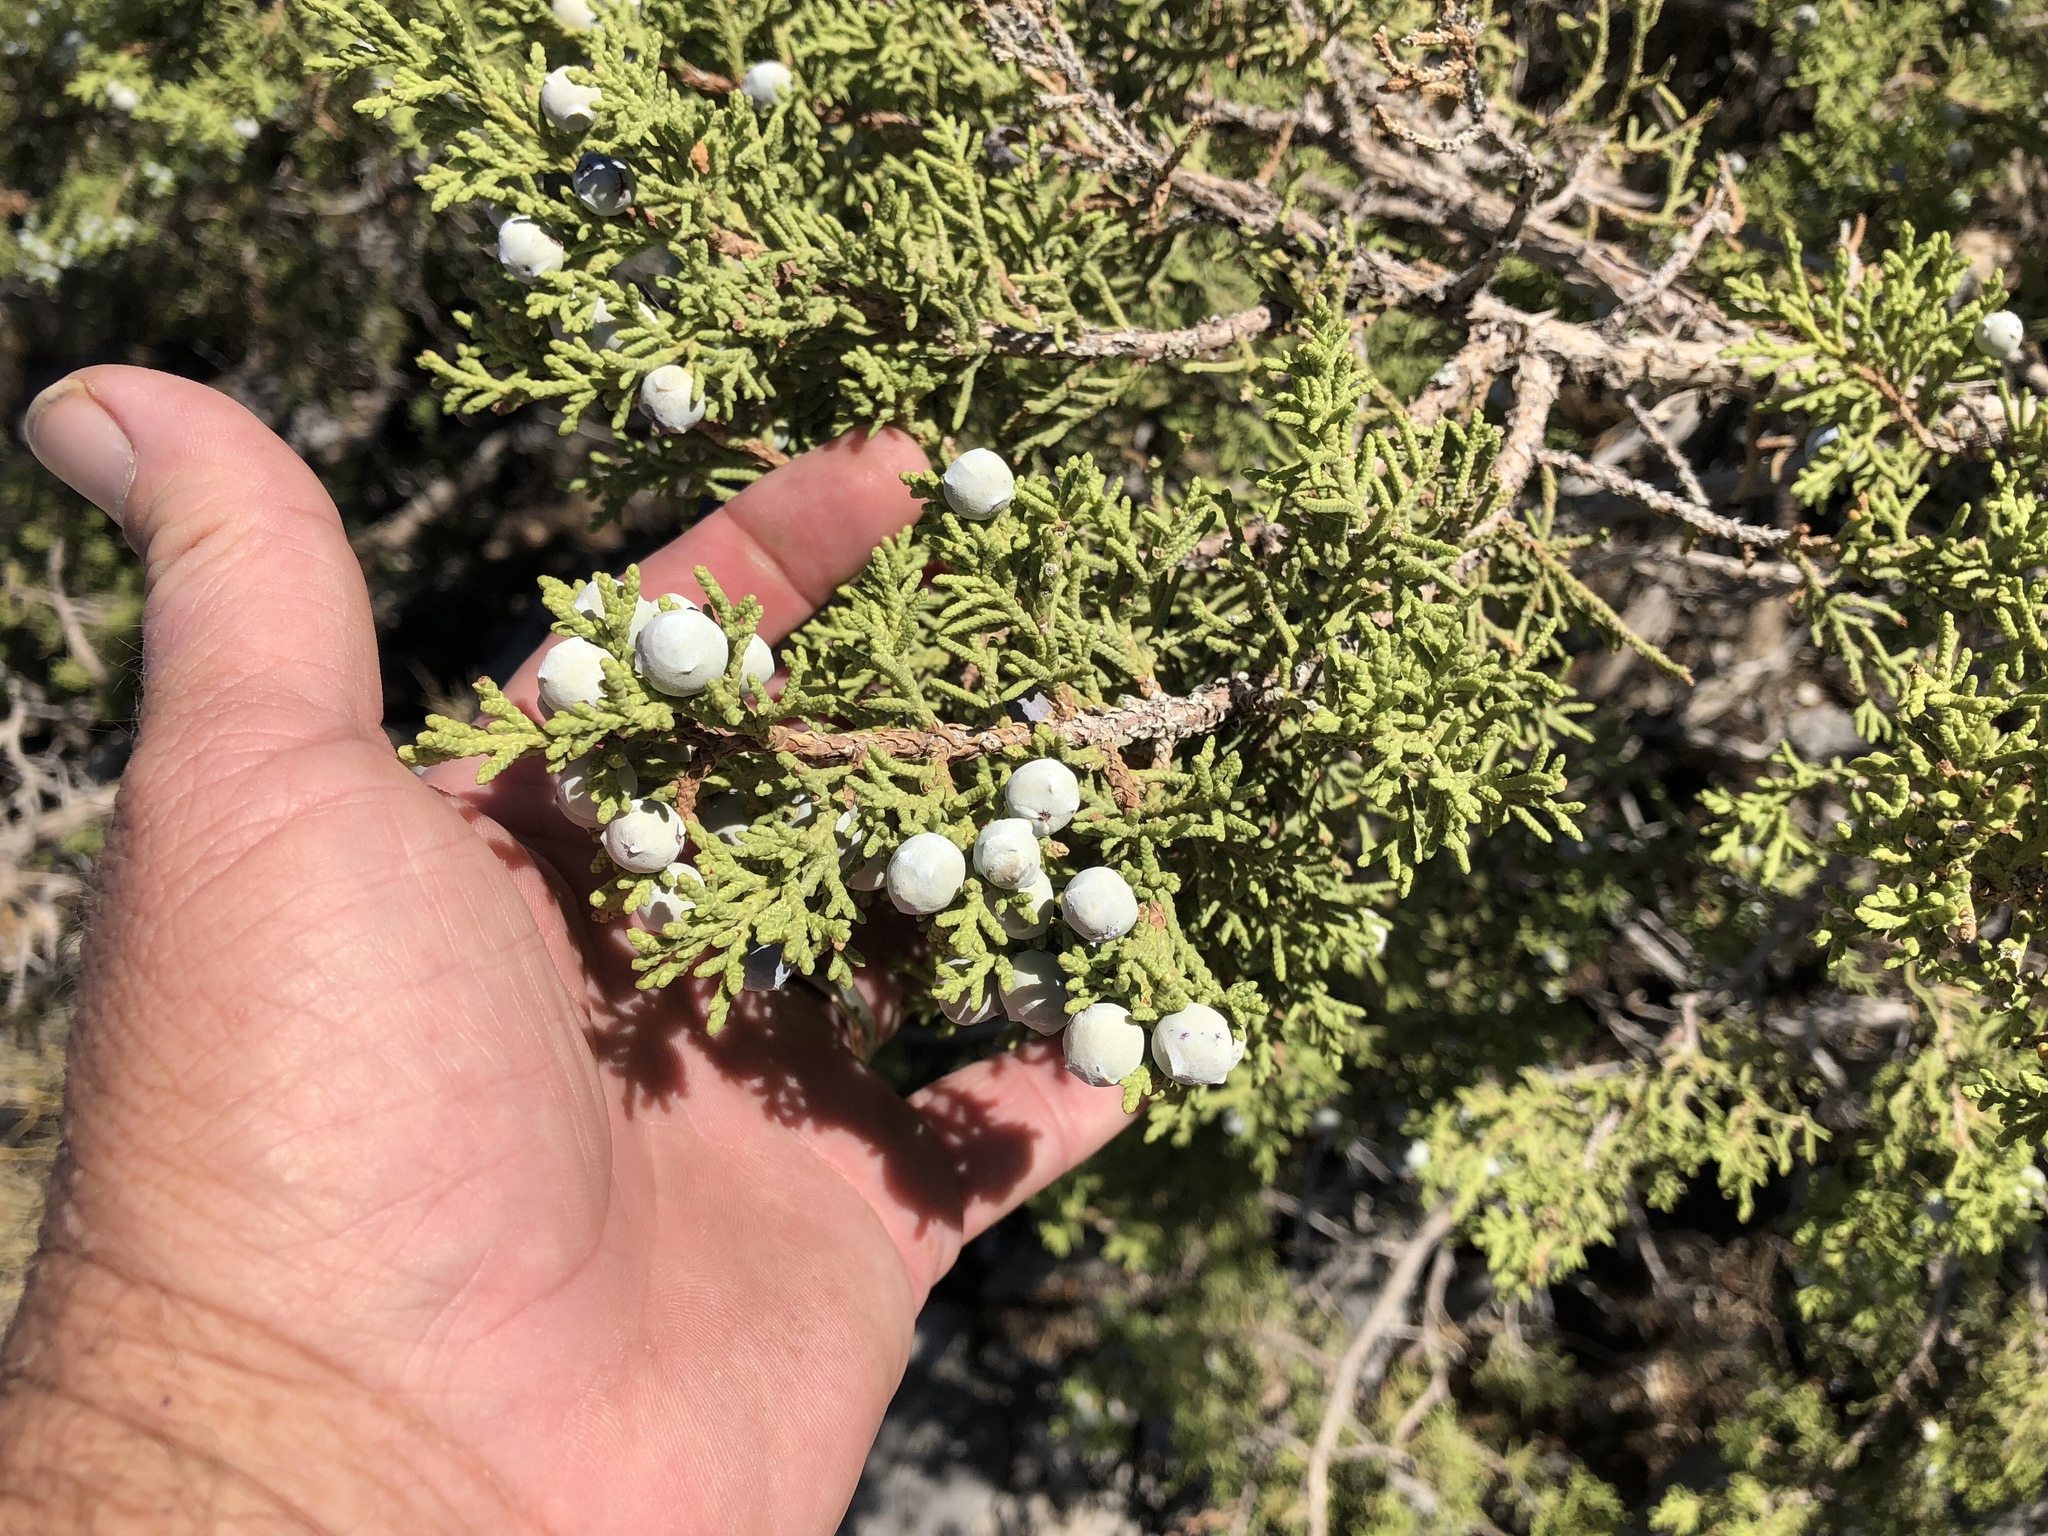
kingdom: Plantae
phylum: Tracheophyta
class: Pinopsida
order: Pinales
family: Cupressaceae
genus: Juniperus
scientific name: Juniperus osteosperma
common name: Utah juniper
